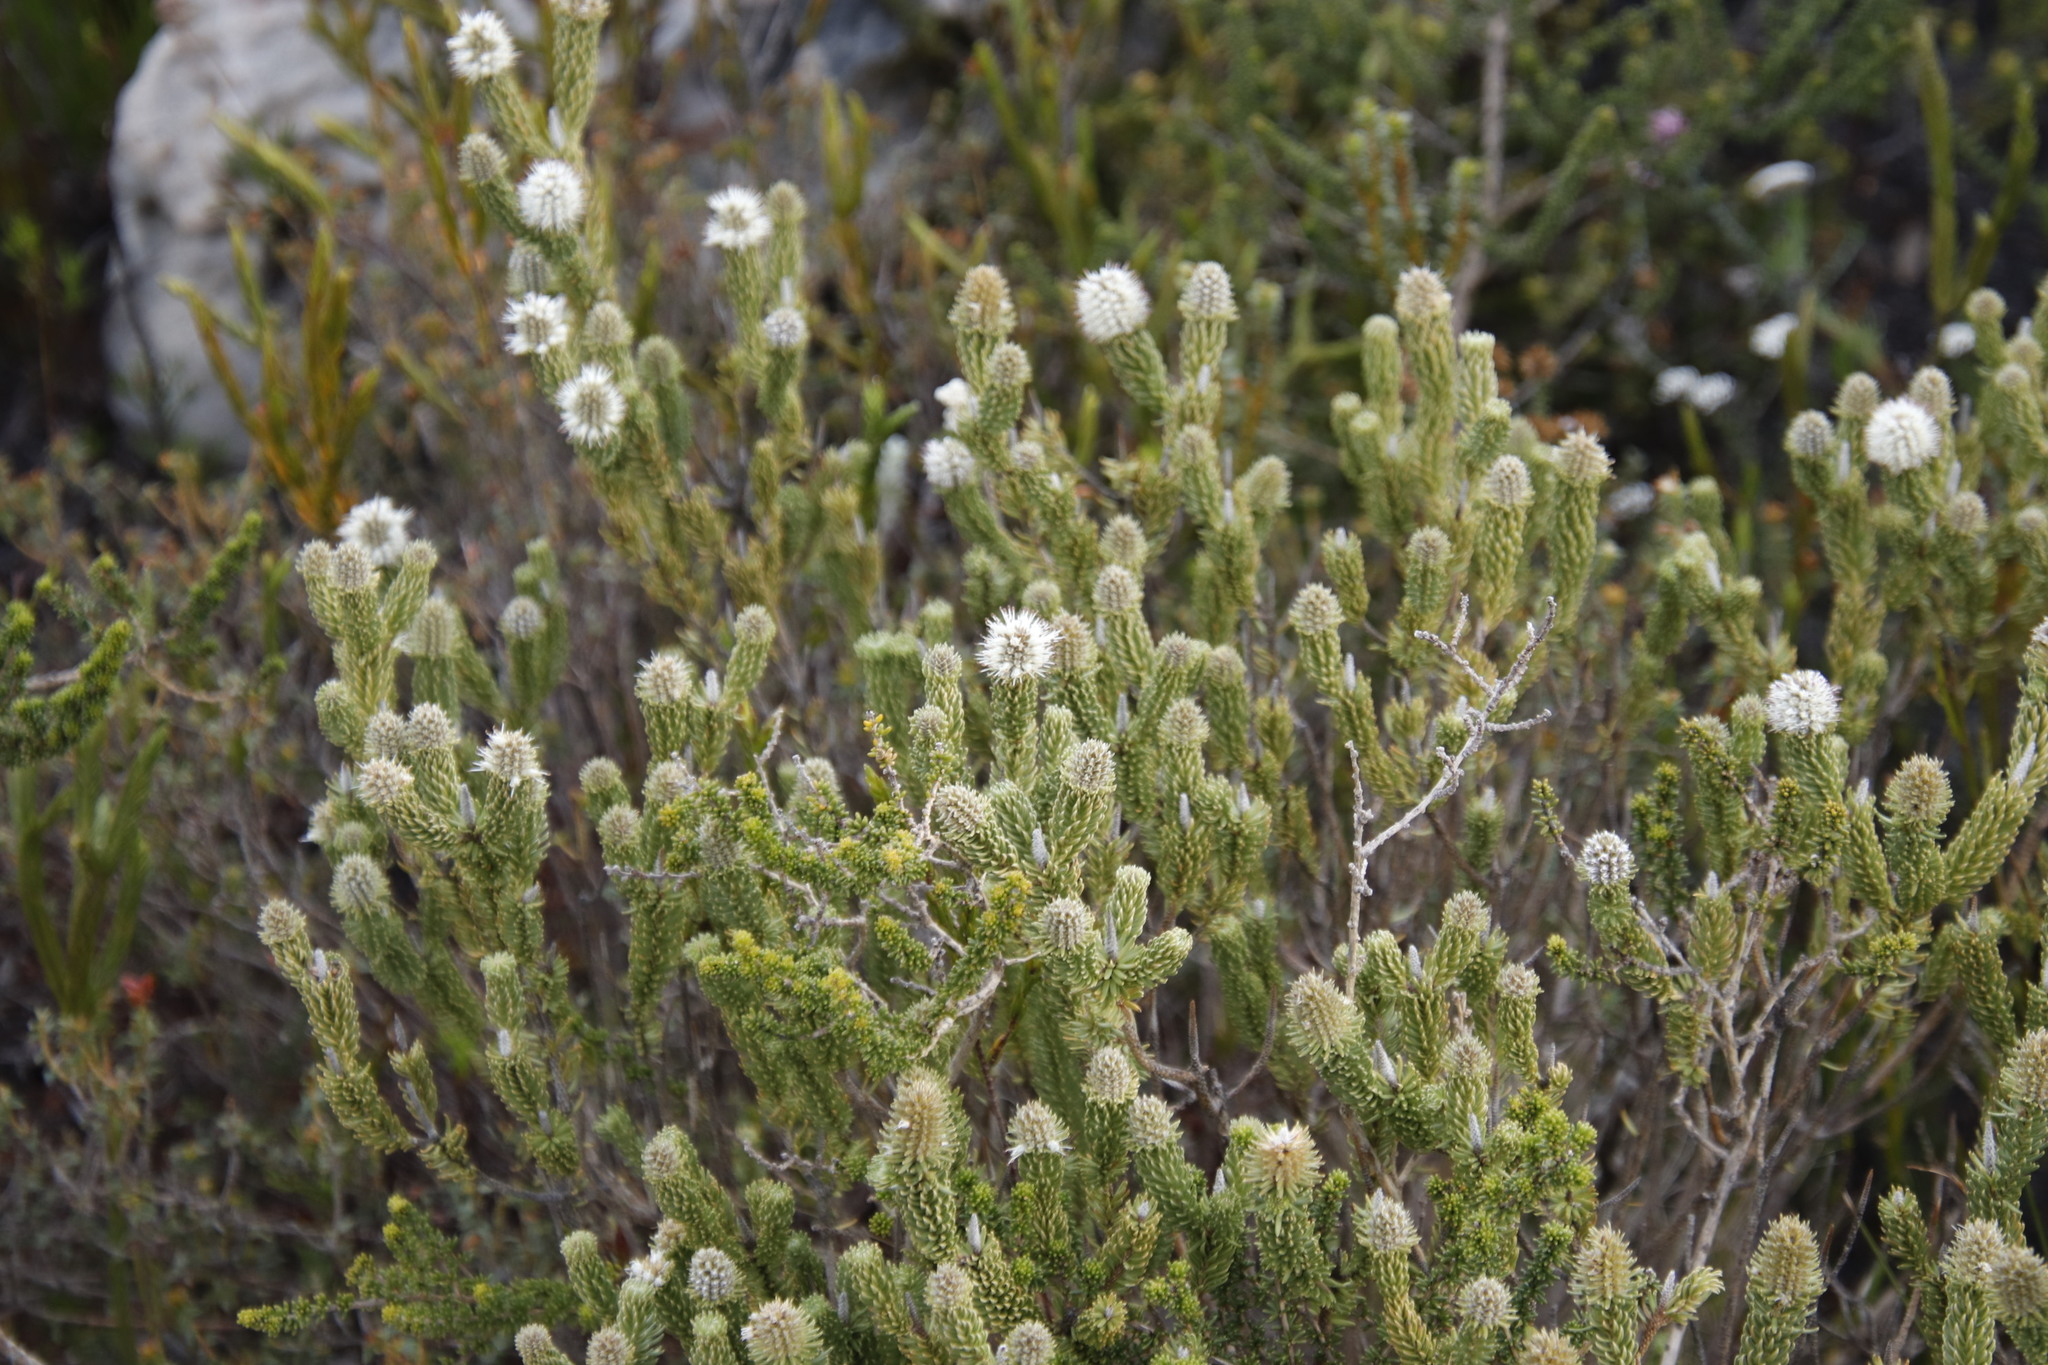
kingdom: Plantae
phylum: Tracheophyta
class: Magnoliopsida
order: Lamiales
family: Stilbaceae
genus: Stilbe
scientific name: Stilbe vestita
